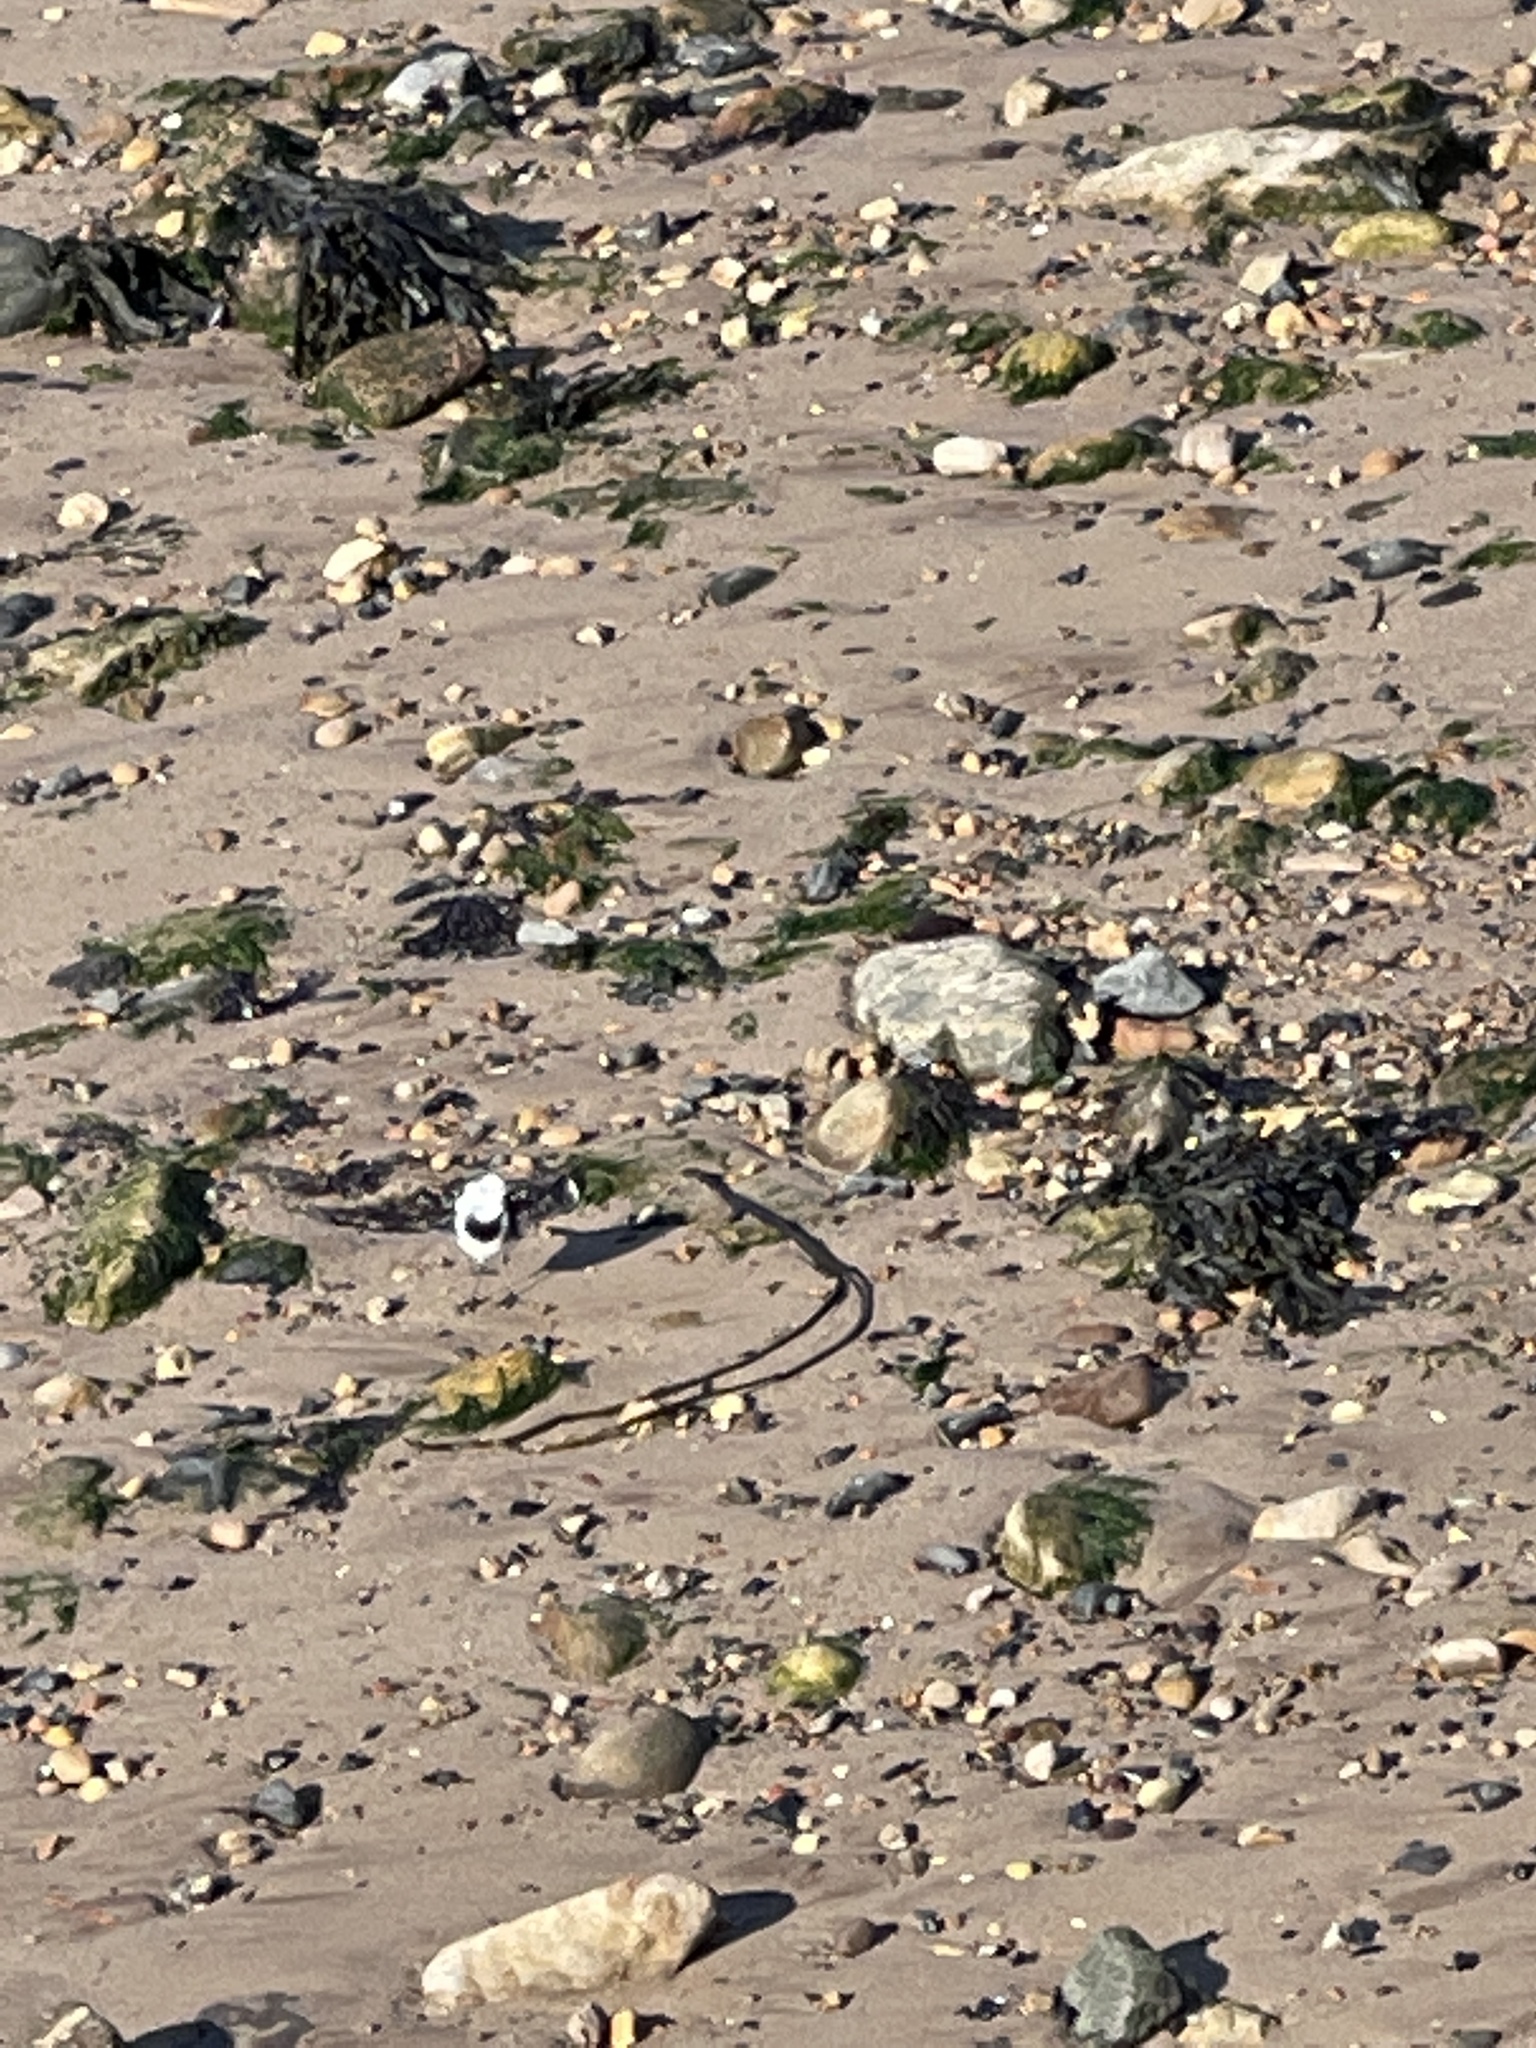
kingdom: Animalia
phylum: Chordata
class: Aves
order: Passeriformes
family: Motacillidae
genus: Motacilla
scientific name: Motacilla alba
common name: White wagtail
